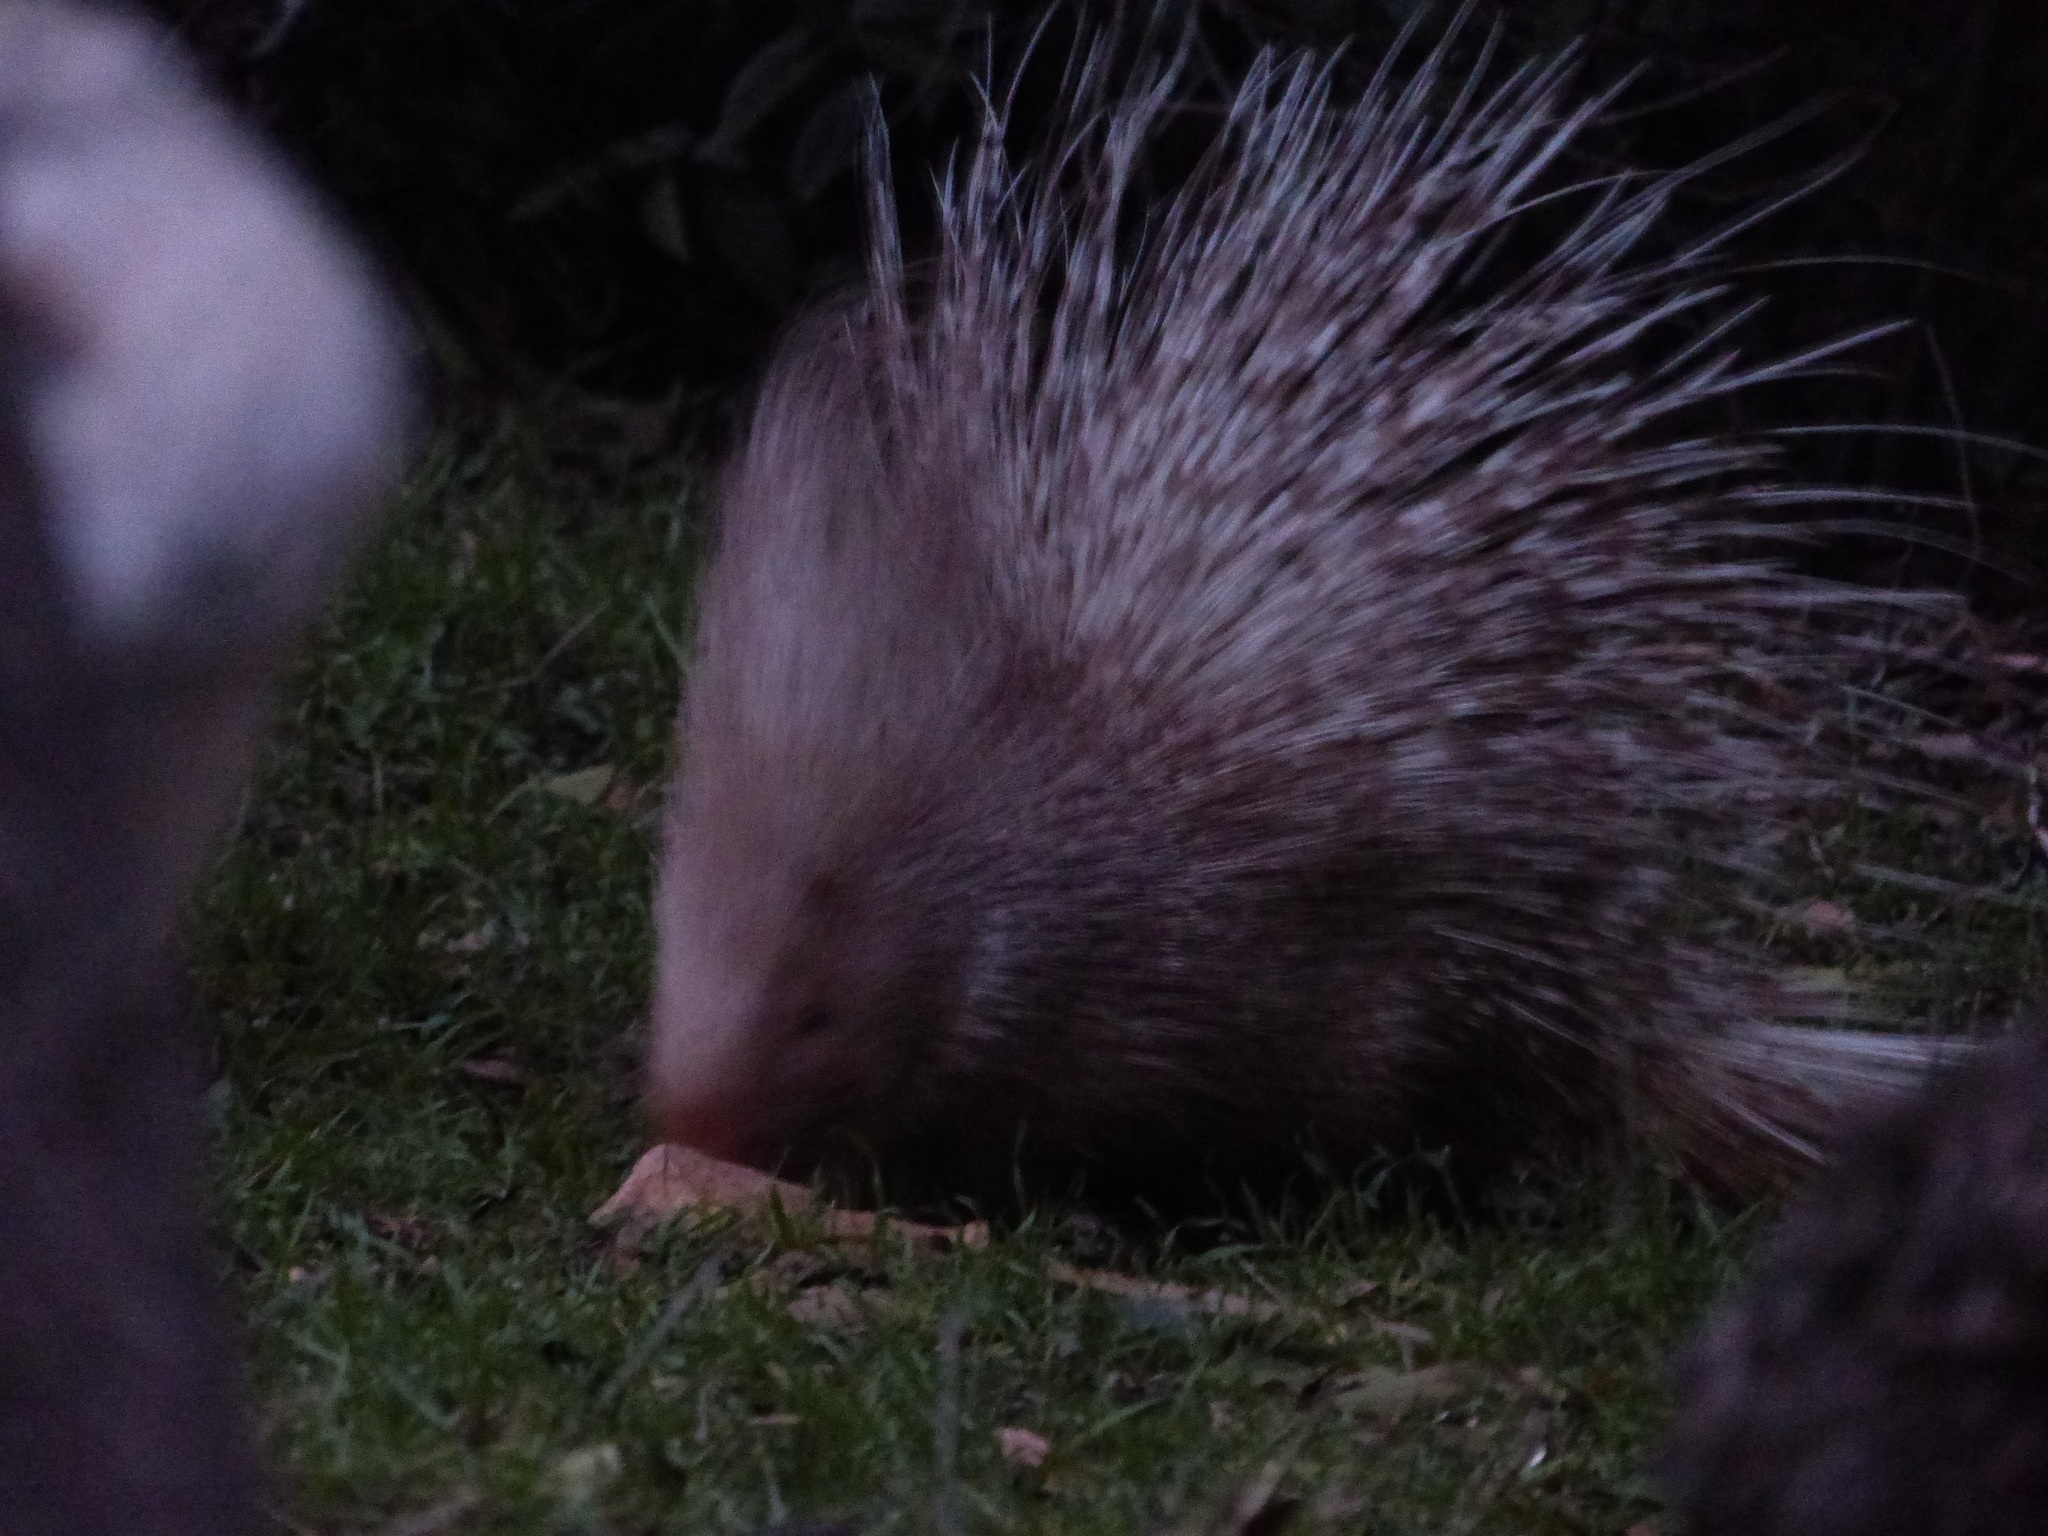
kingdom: Animalia
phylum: Chordata
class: Mammalia
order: Rodentia
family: Hystricidae
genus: Hystrix
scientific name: Hystrix indica
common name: Indian crested porcupine
